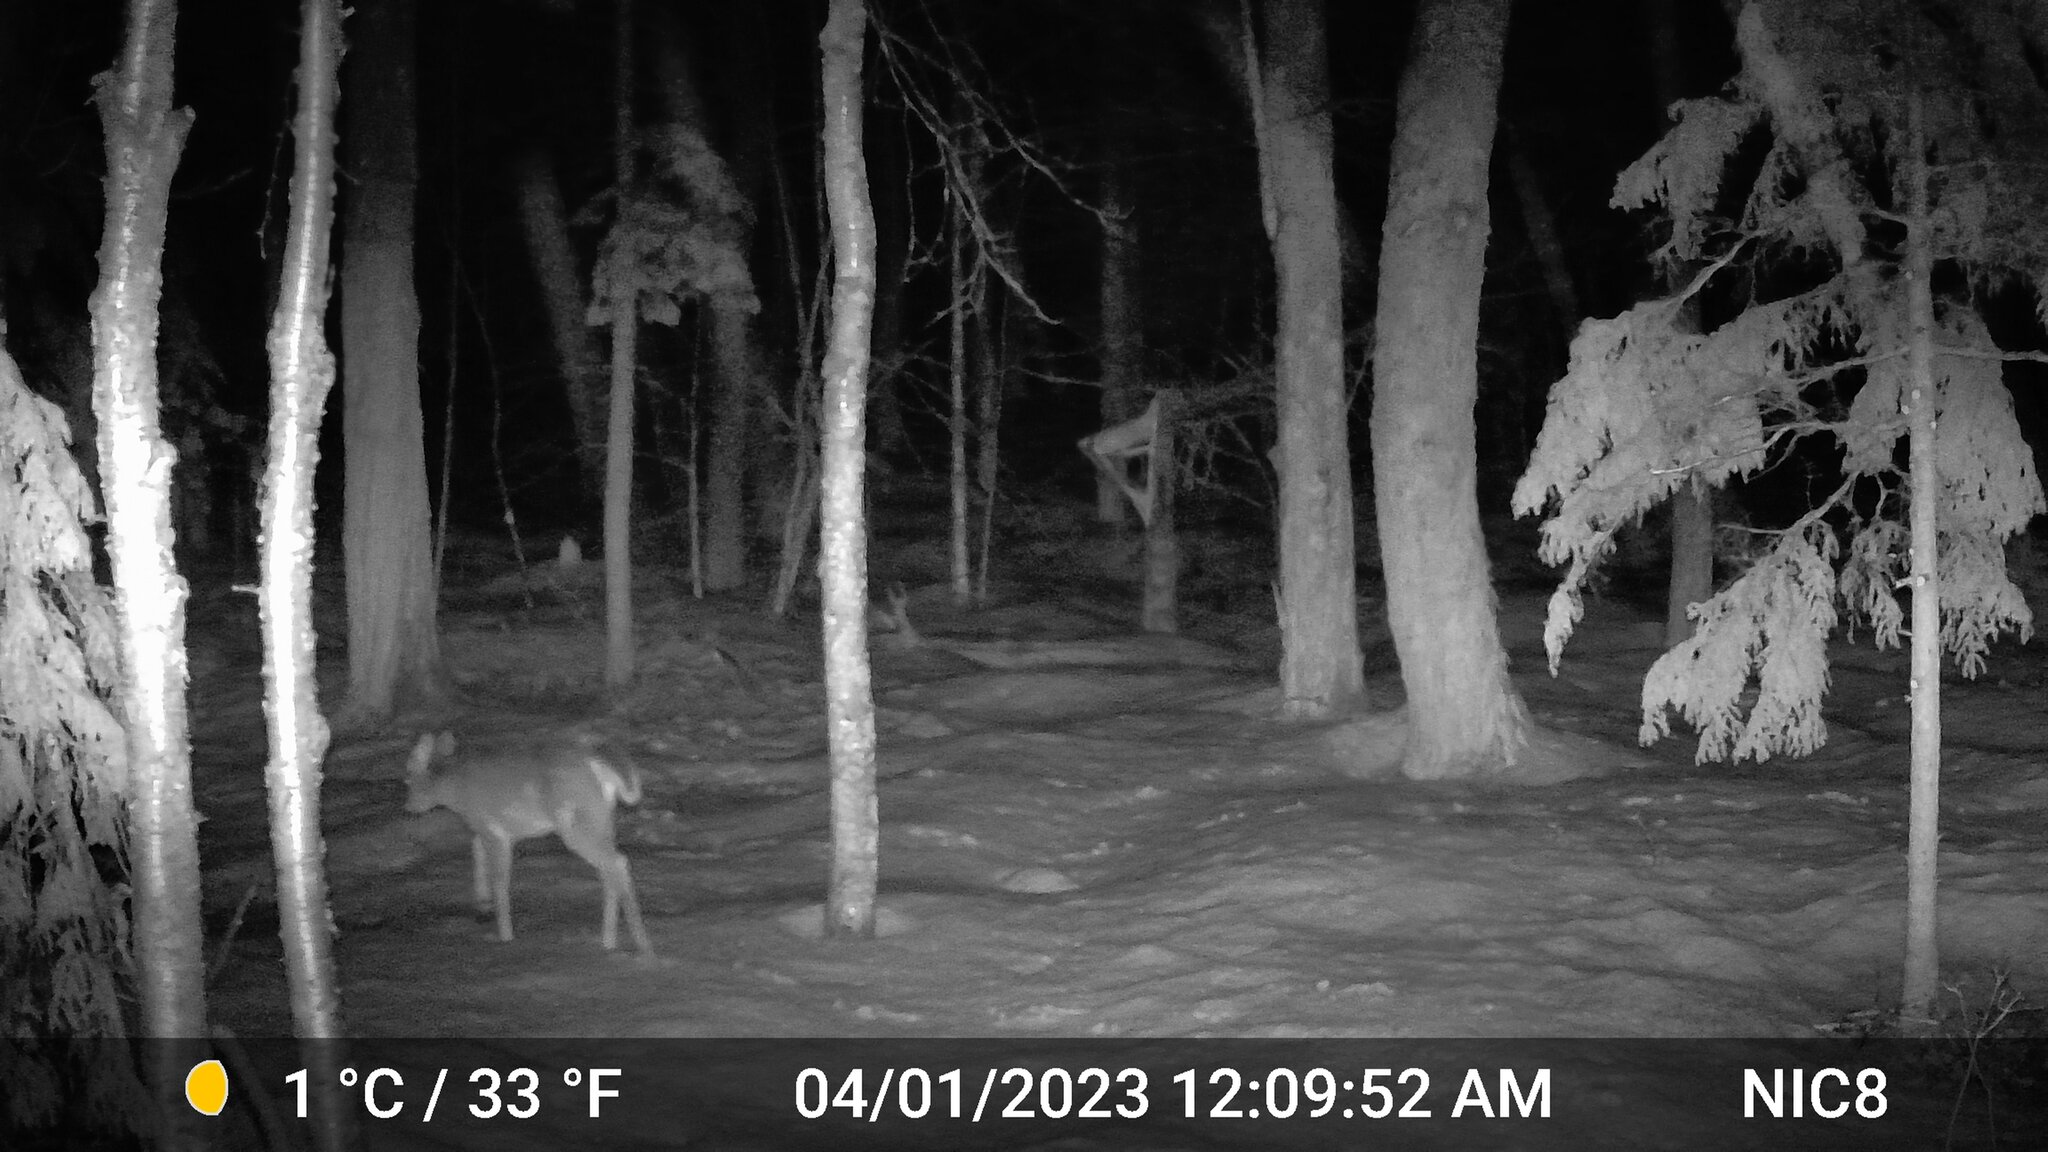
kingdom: Animalia
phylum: Chordata
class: Mammalia
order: Artiodactyla
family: Cervidae
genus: Odocoileus
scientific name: Odocoileus virginianus
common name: White-tailed deer
